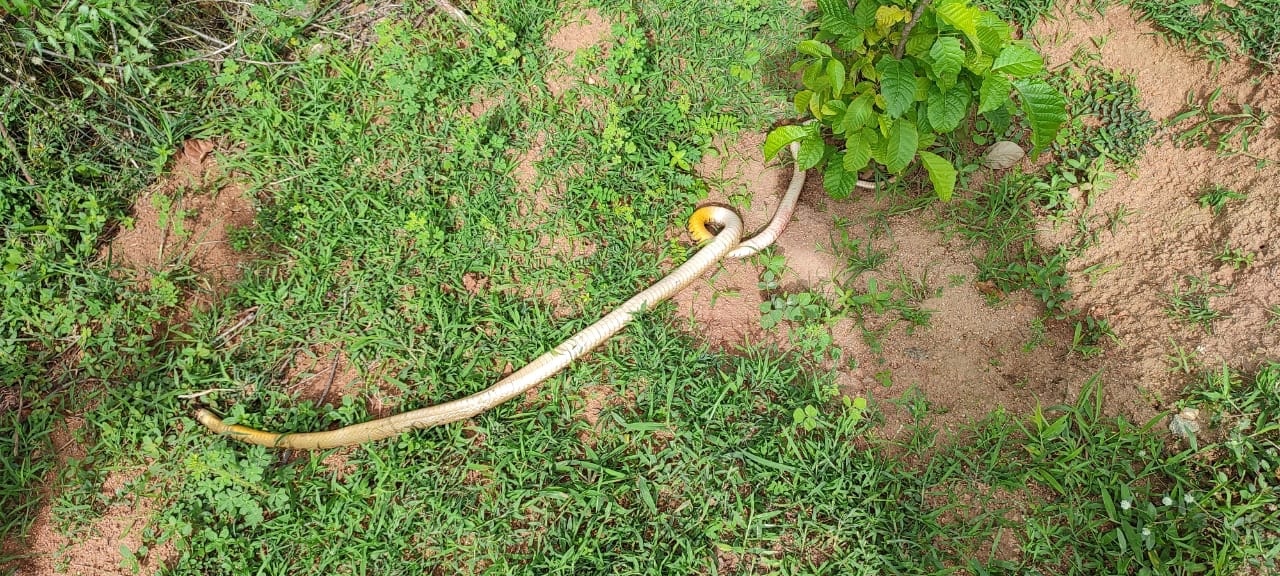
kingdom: Animalia
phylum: Chordata
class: Squamata
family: Colubridae
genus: Ptyas
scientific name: Ptyas mucosa
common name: Oriental ratsnake
